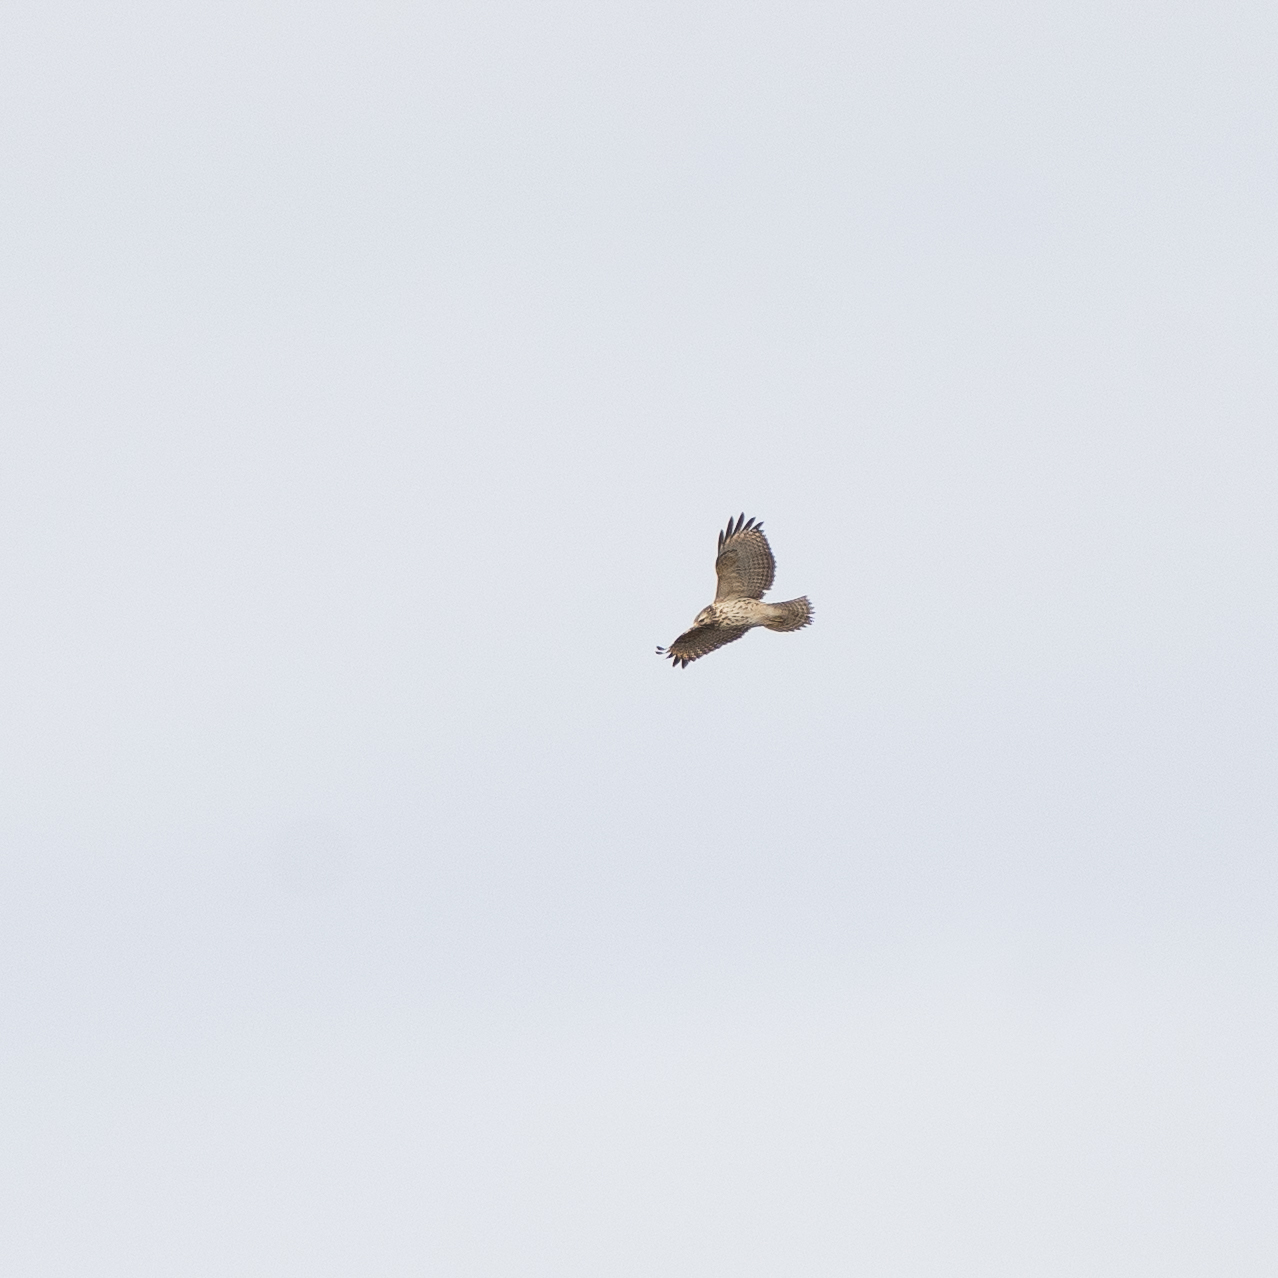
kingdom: Animalia
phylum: Chordata
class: Aves
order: Accipitriformes
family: Accipitridae
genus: Buteo
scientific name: Buteo lineatus
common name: Red-shouldered hawk
